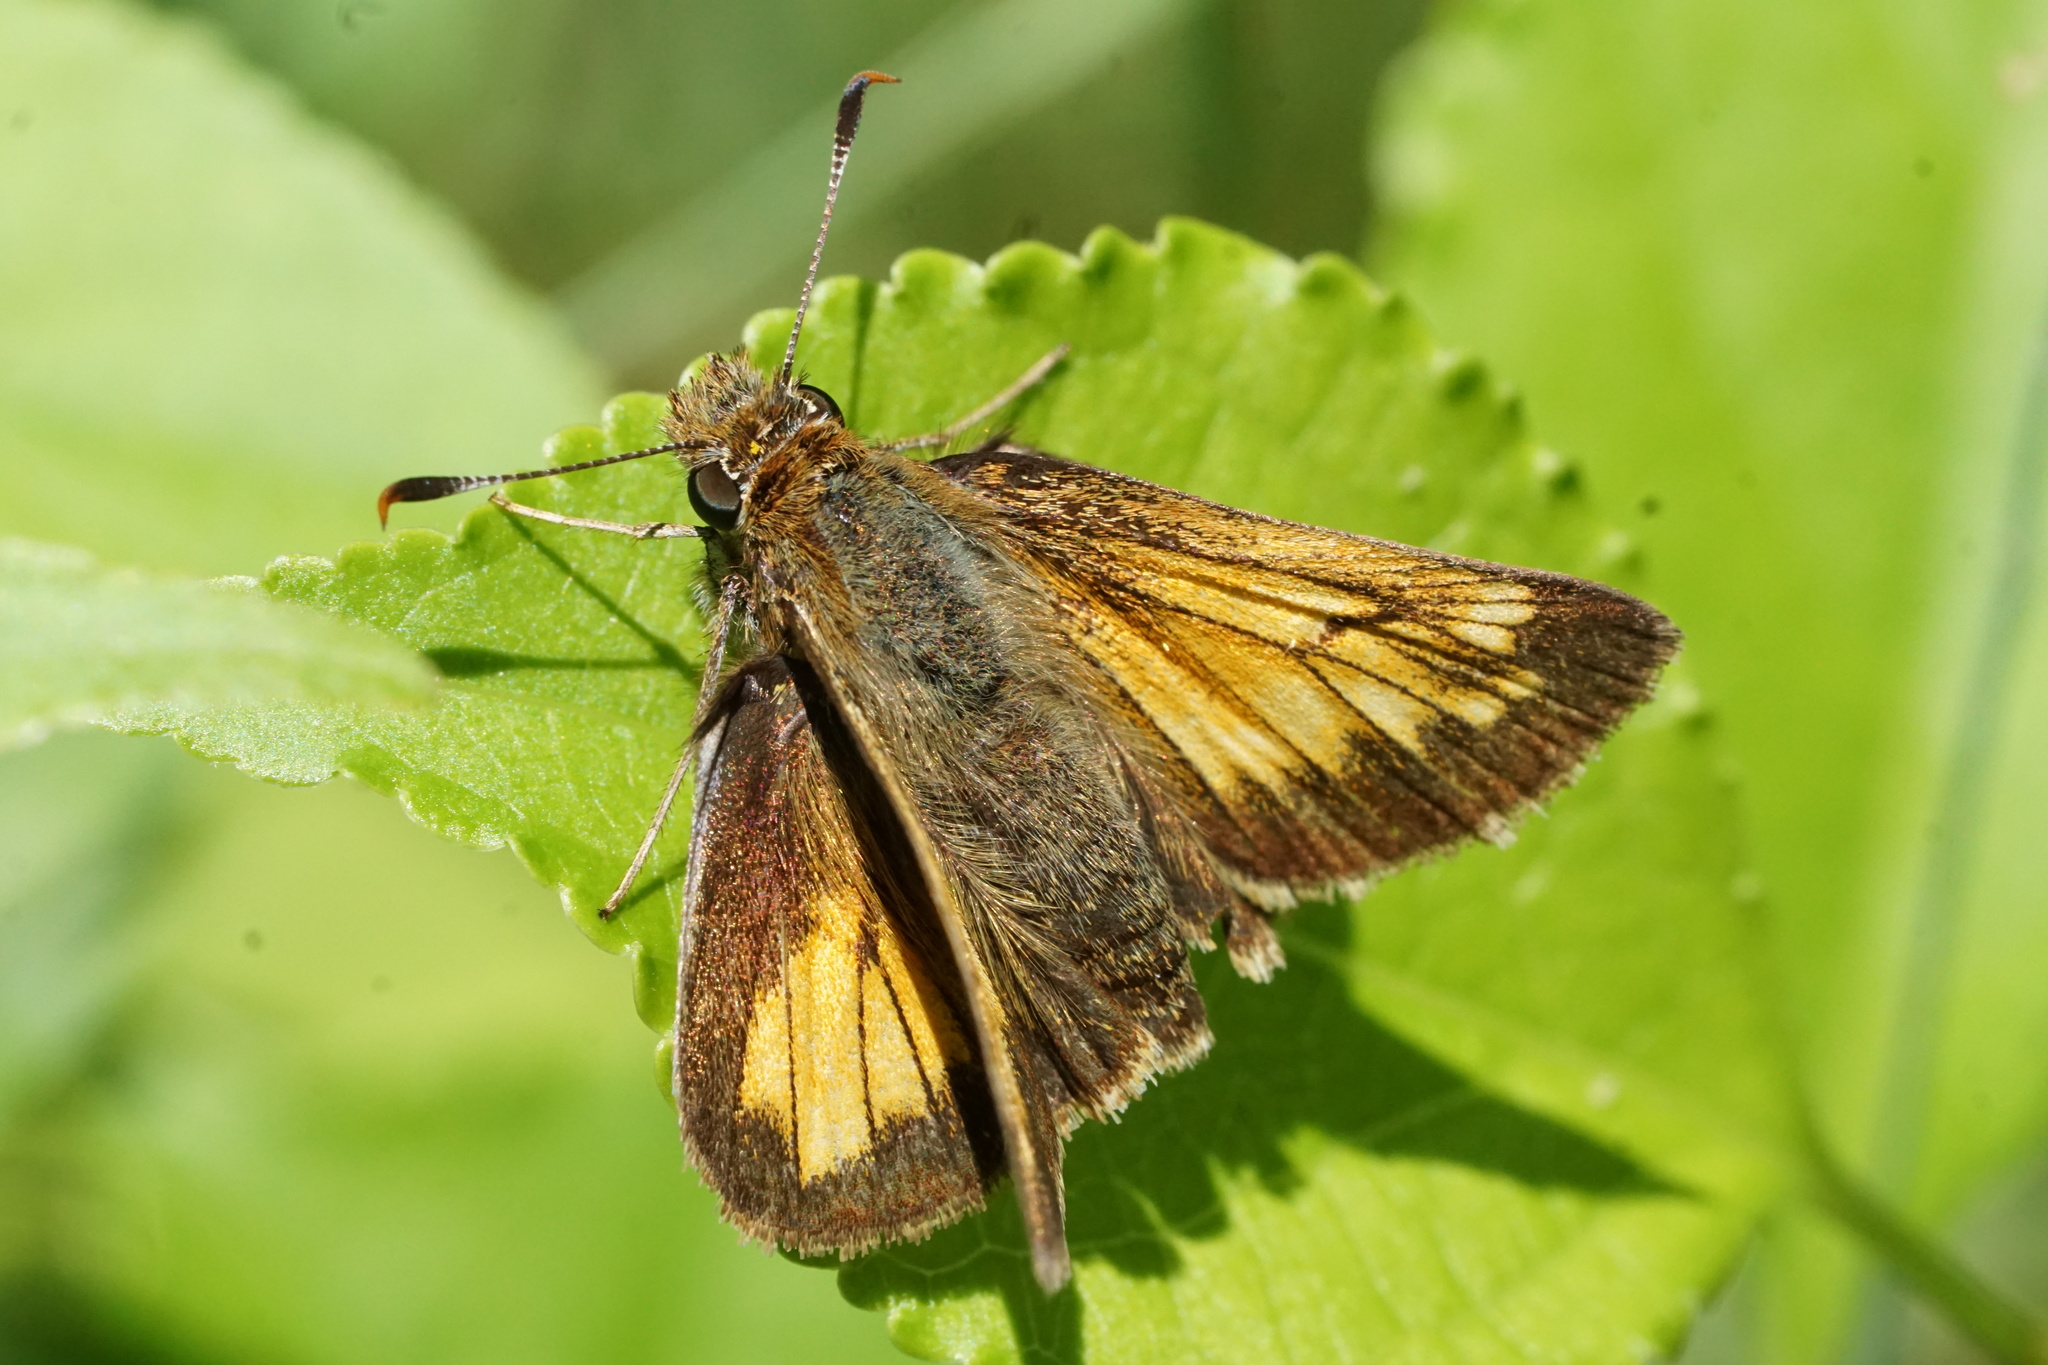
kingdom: Animalia
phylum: Arthropoda
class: Insecta
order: Lepidoptera
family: Hesperiidae
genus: Lon
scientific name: Lon hobomok
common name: Hobomok skipper
